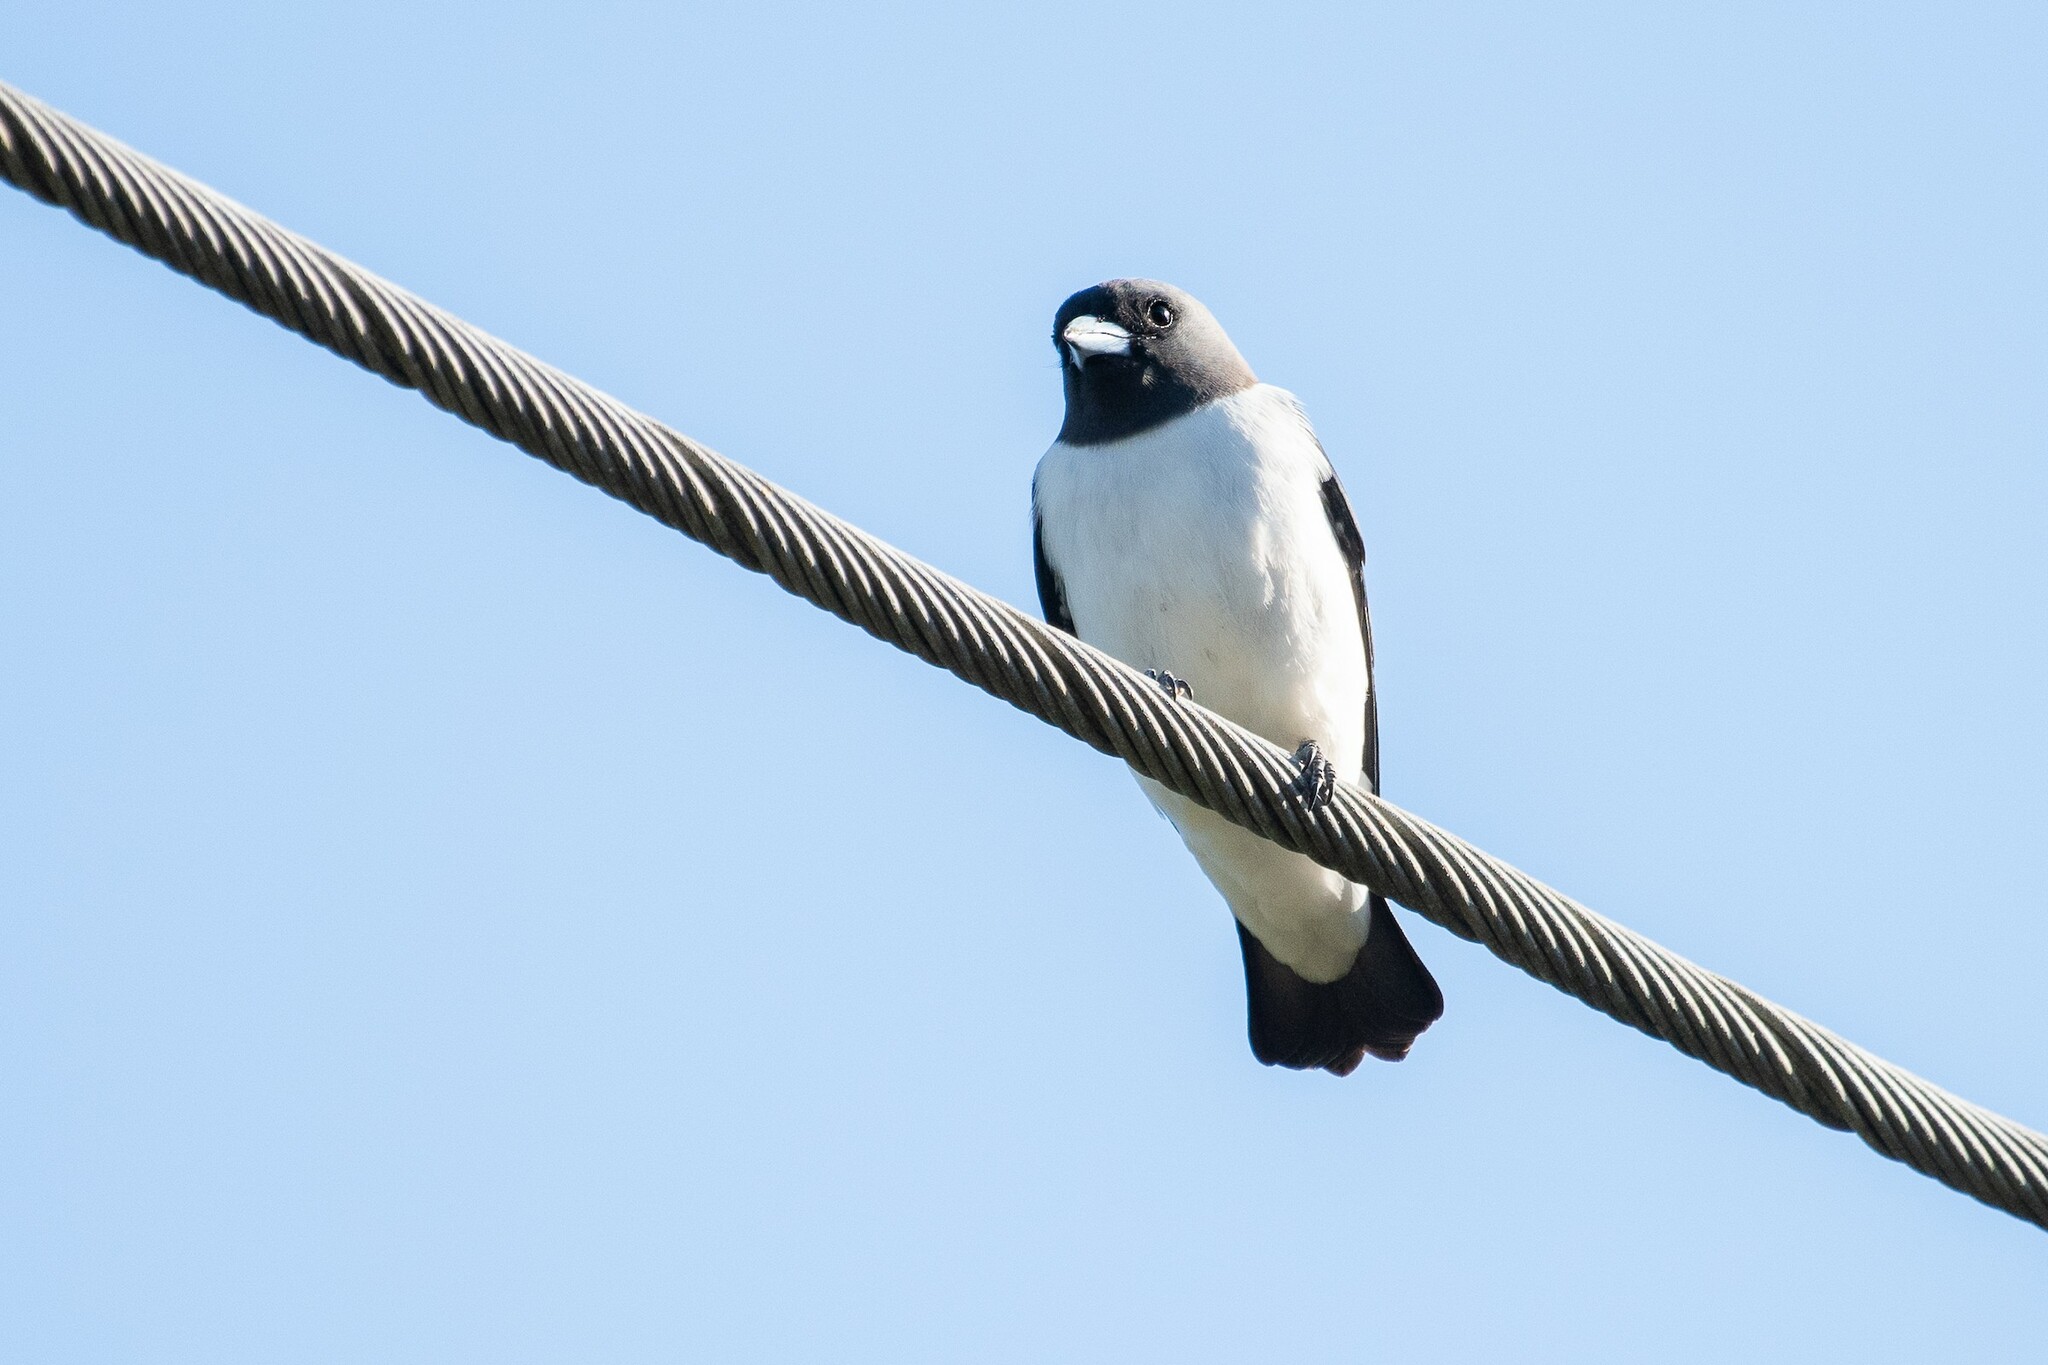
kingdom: Animalia
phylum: Chordata
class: Aves
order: Passeriformes
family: Artamidae
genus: Artamus
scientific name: Artamus leucoryn
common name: White-breasted woodswallow
